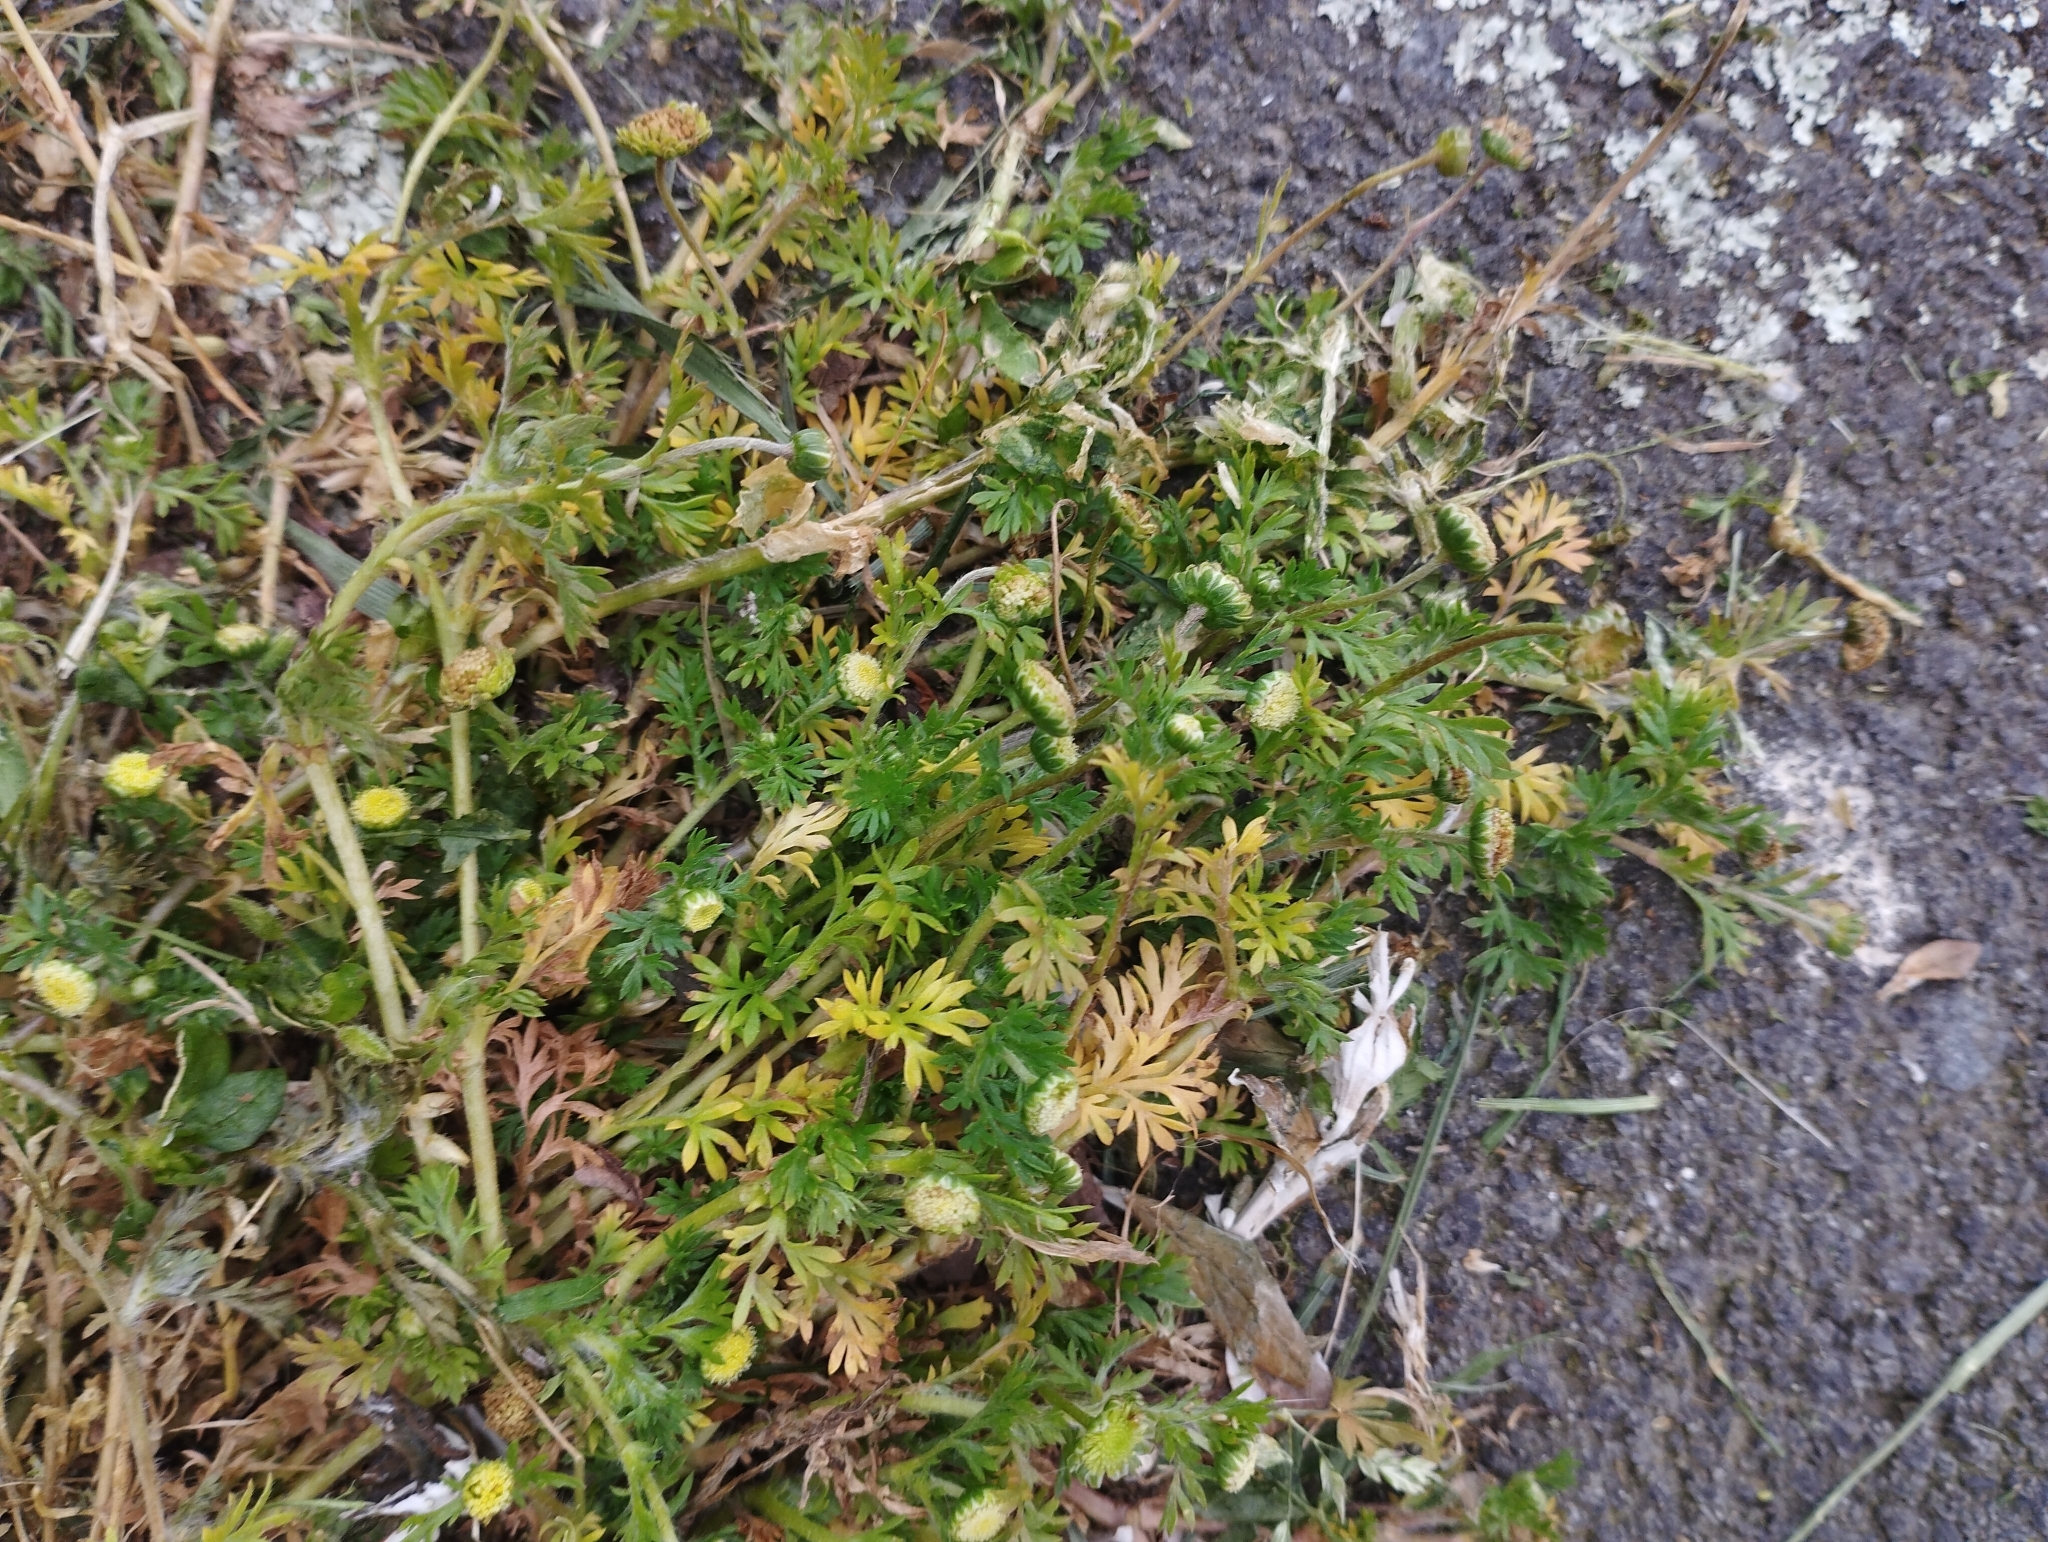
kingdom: Plantae
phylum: Tracheophyta
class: Magnoliopsida
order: Asterales
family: Asteraceae
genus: Cotula
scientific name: Cotula australis
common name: Australian waterbuttons
